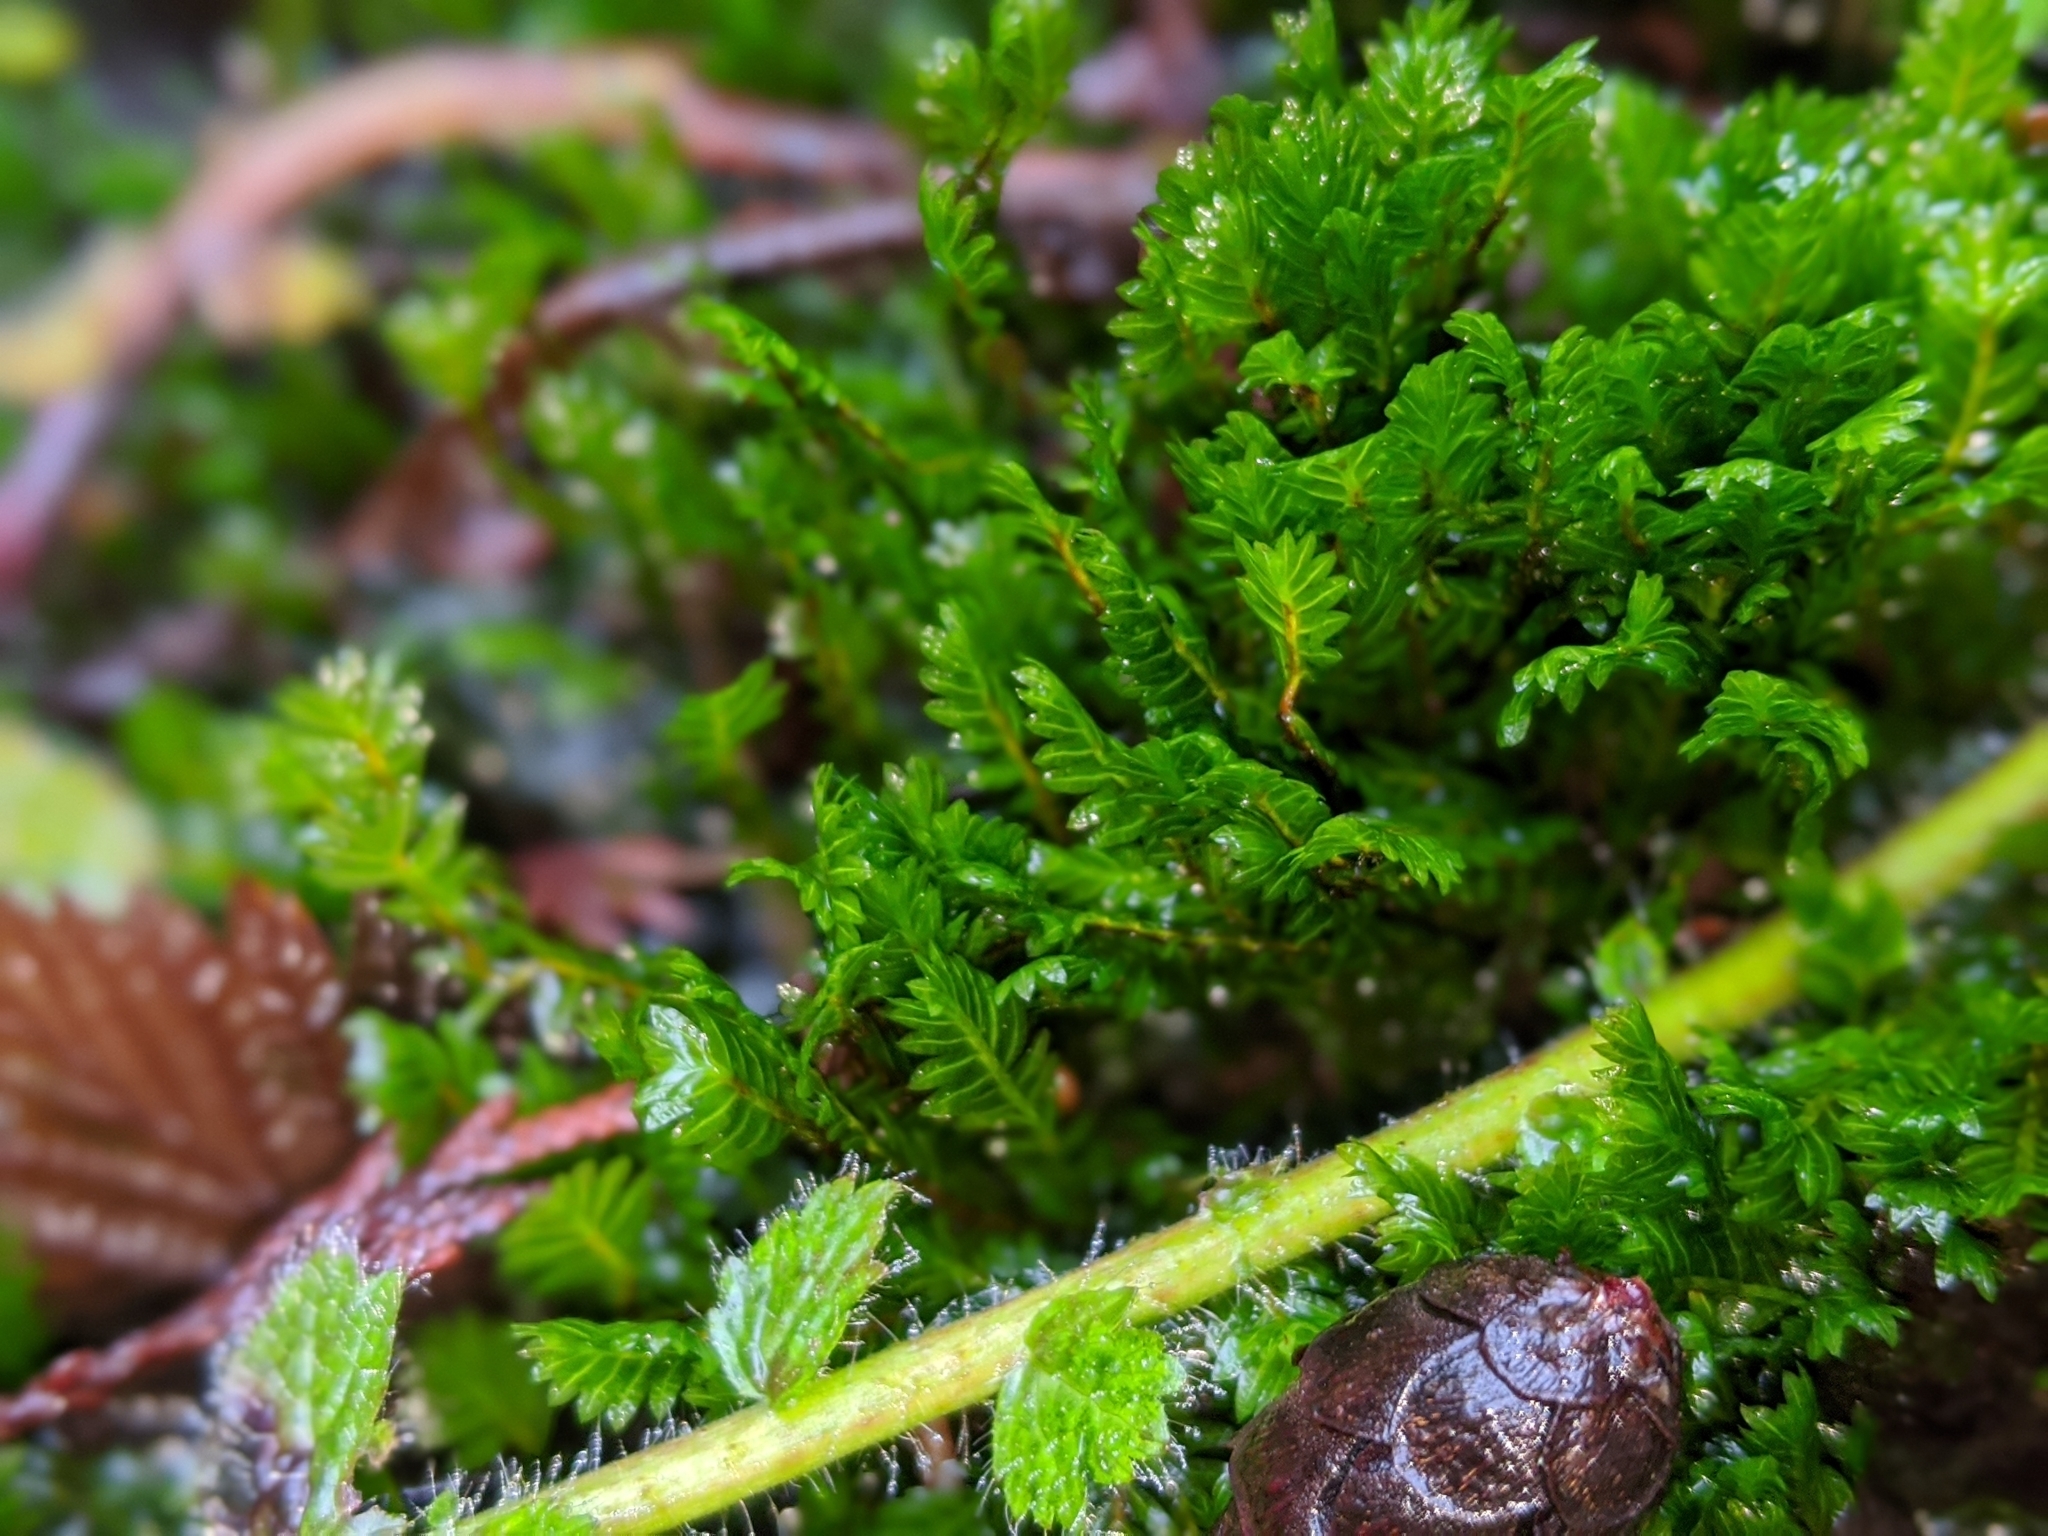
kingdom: Plantae
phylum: Bryophyta
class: Bryopsida
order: Dicranales
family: Fissidentaceae
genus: Fissidens
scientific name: Fissidens adianthoides
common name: Maidenhair pocket moss
